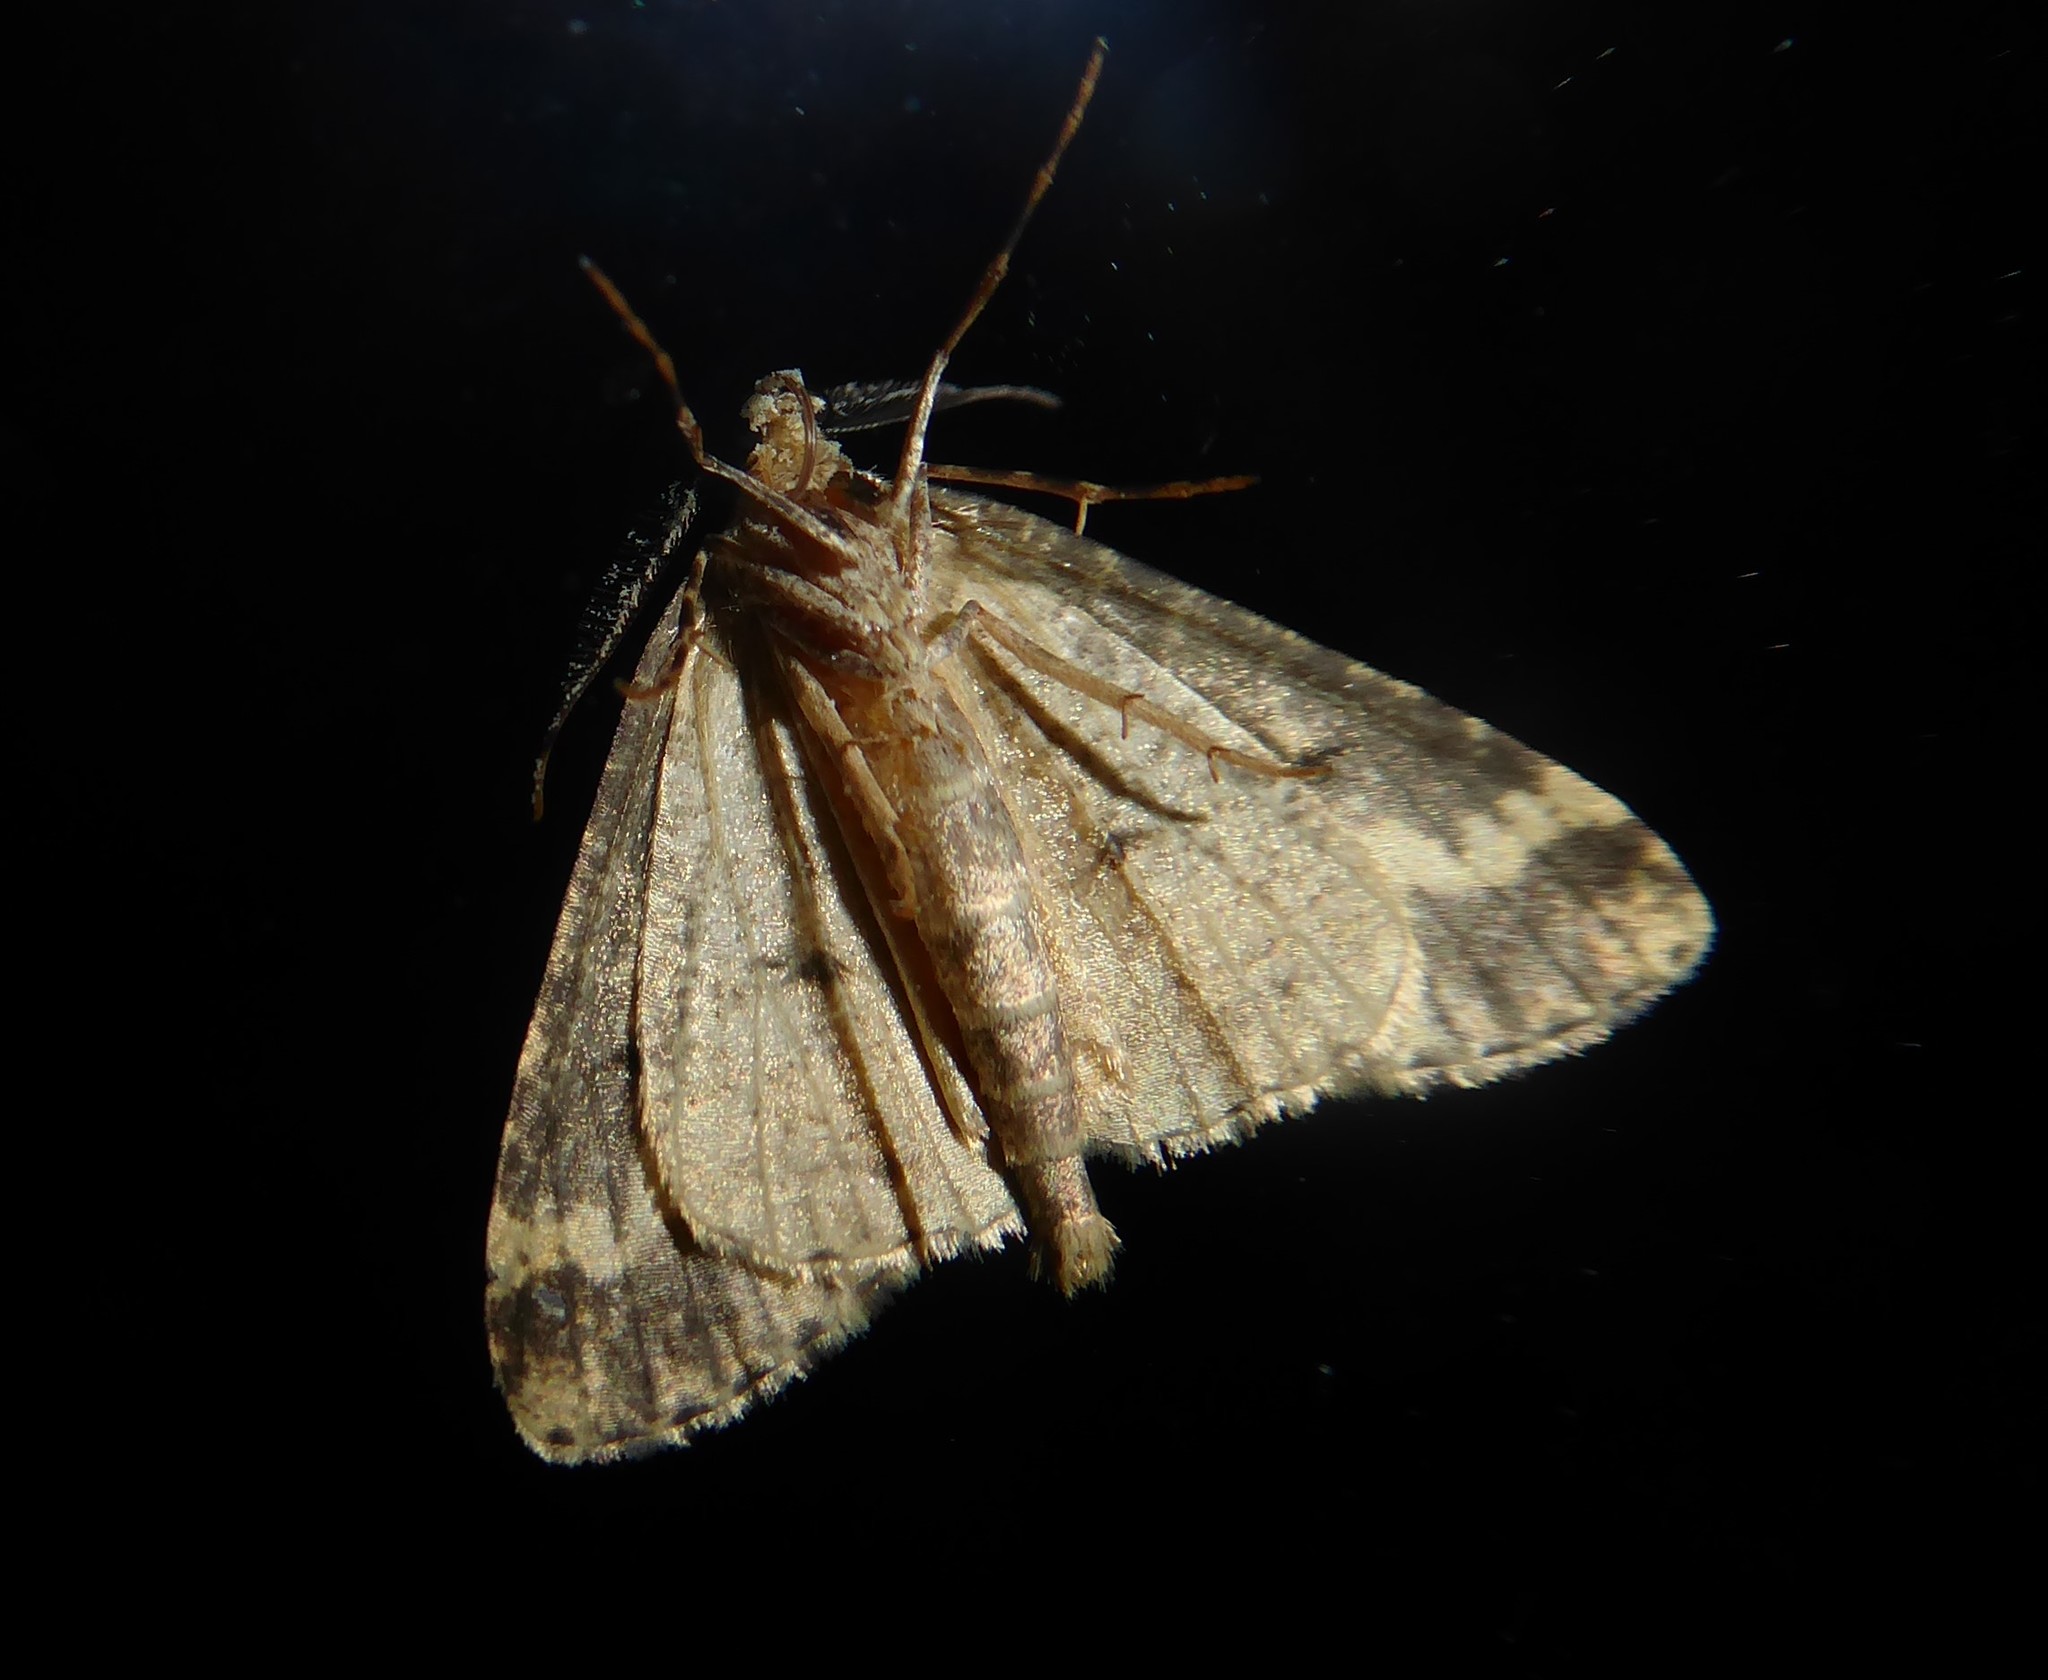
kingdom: Animalia
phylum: Arthropoda
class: Insecta
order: Lepidoptera
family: Geometridae
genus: Pseudocoremia
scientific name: Pseudocoremia leucelaea
